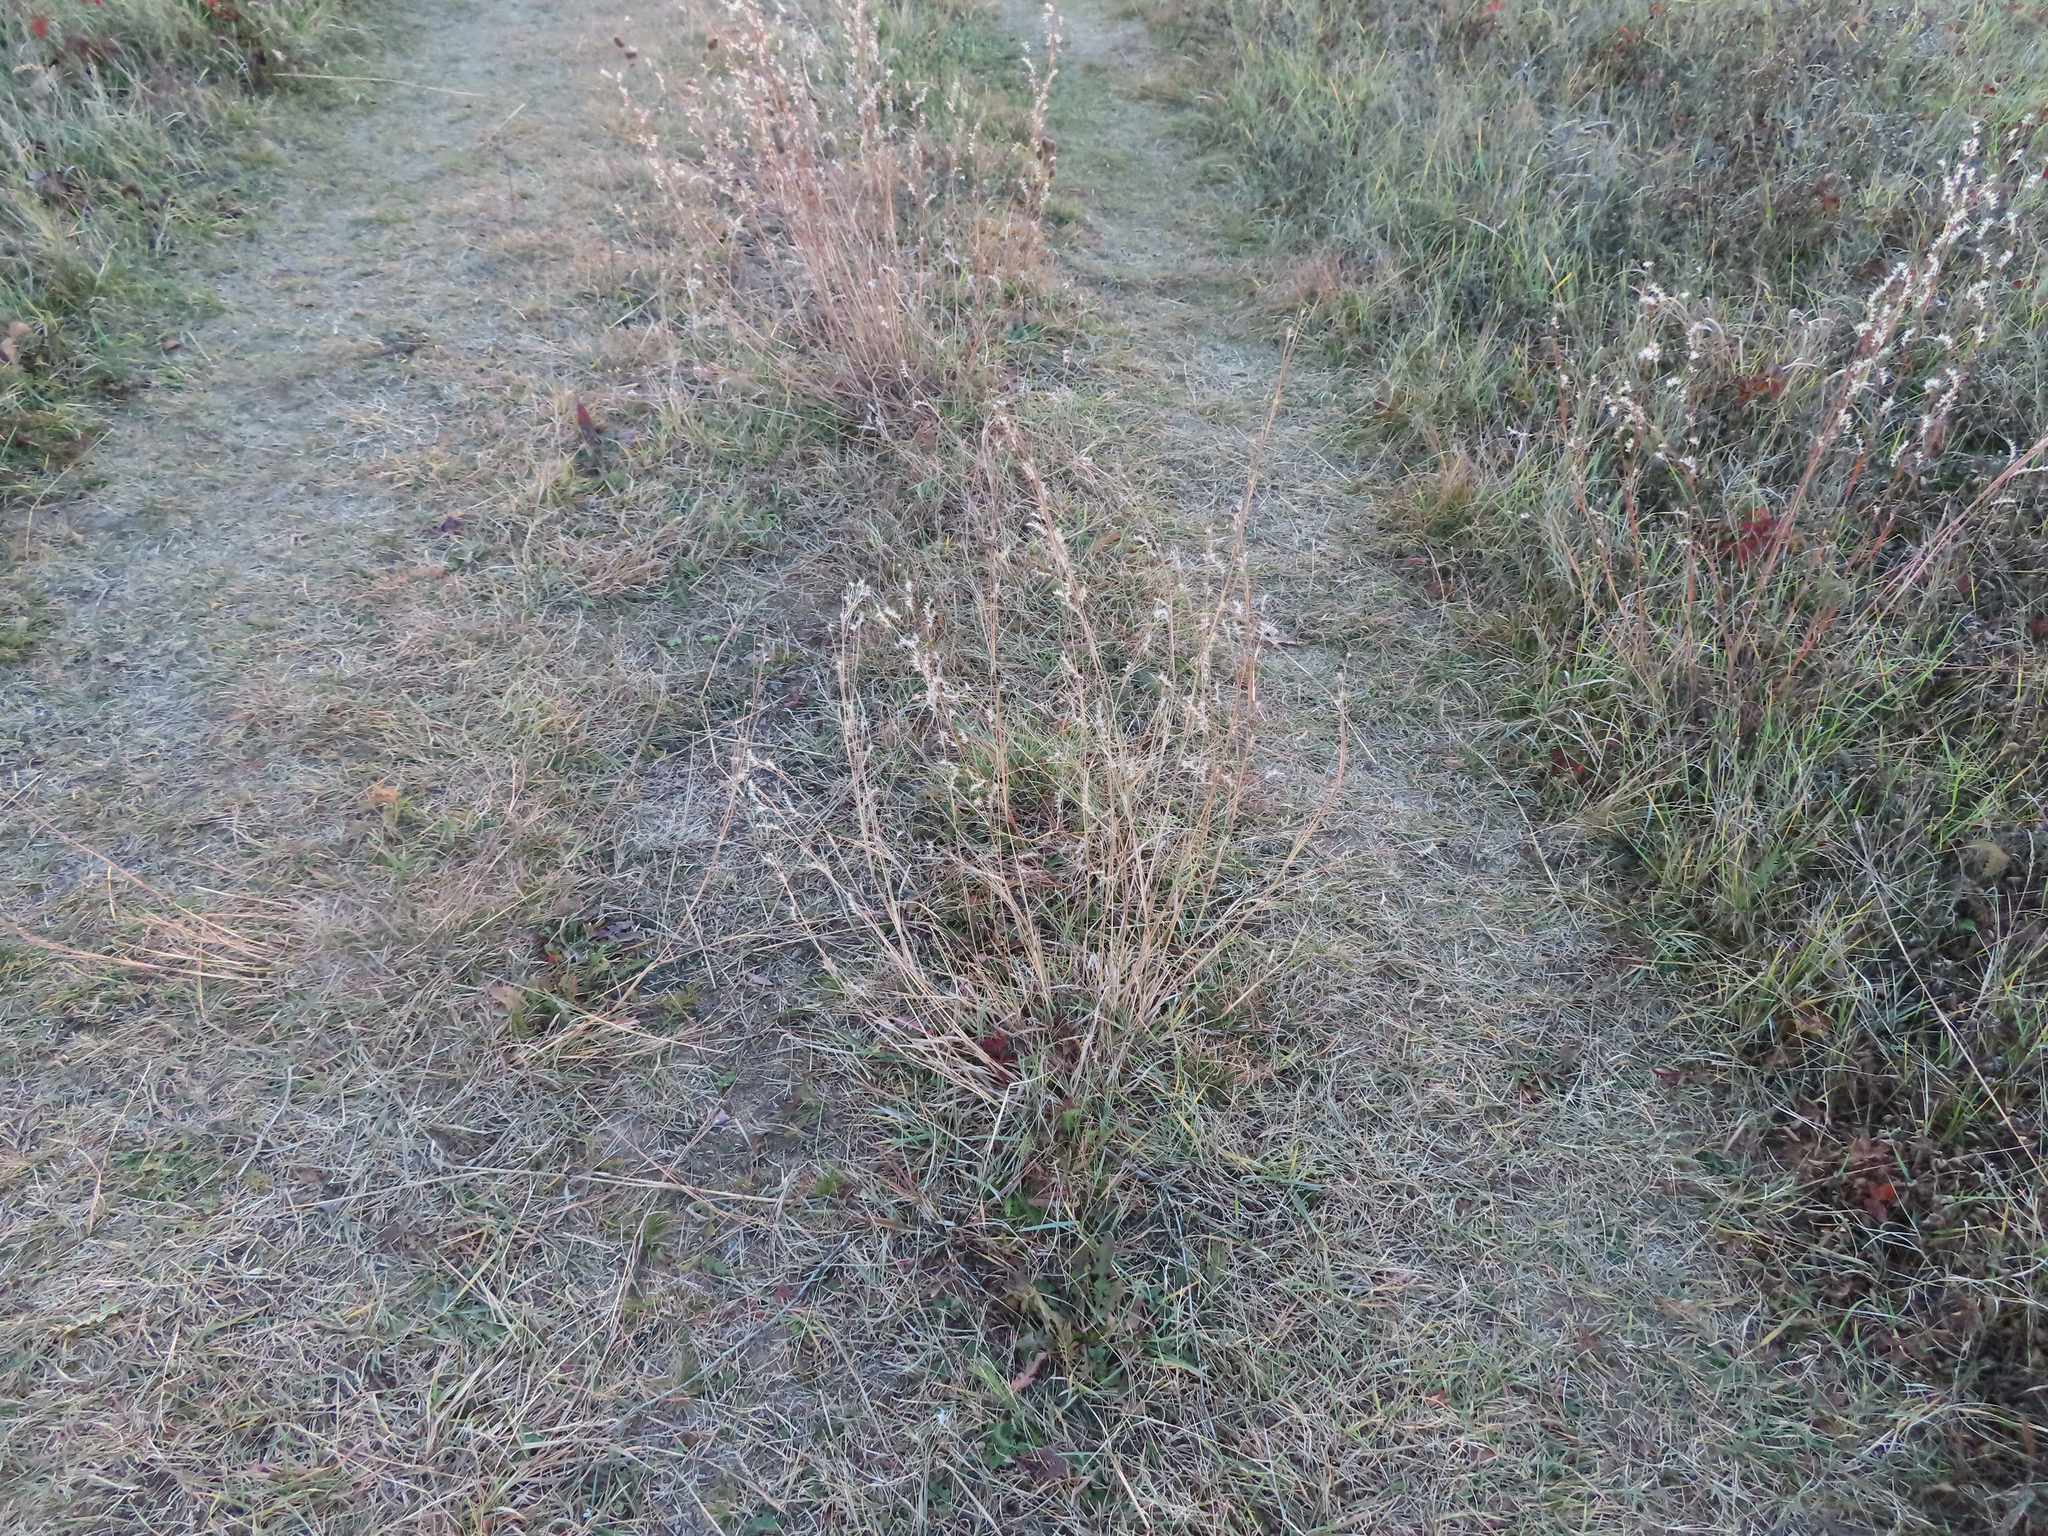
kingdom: Plantae
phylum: Tracheophyta
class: Liliopsida
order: Poales
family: Poaceae
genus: Schizachyrium
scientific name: Schizachyrium scoparium
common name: Little bluestem
